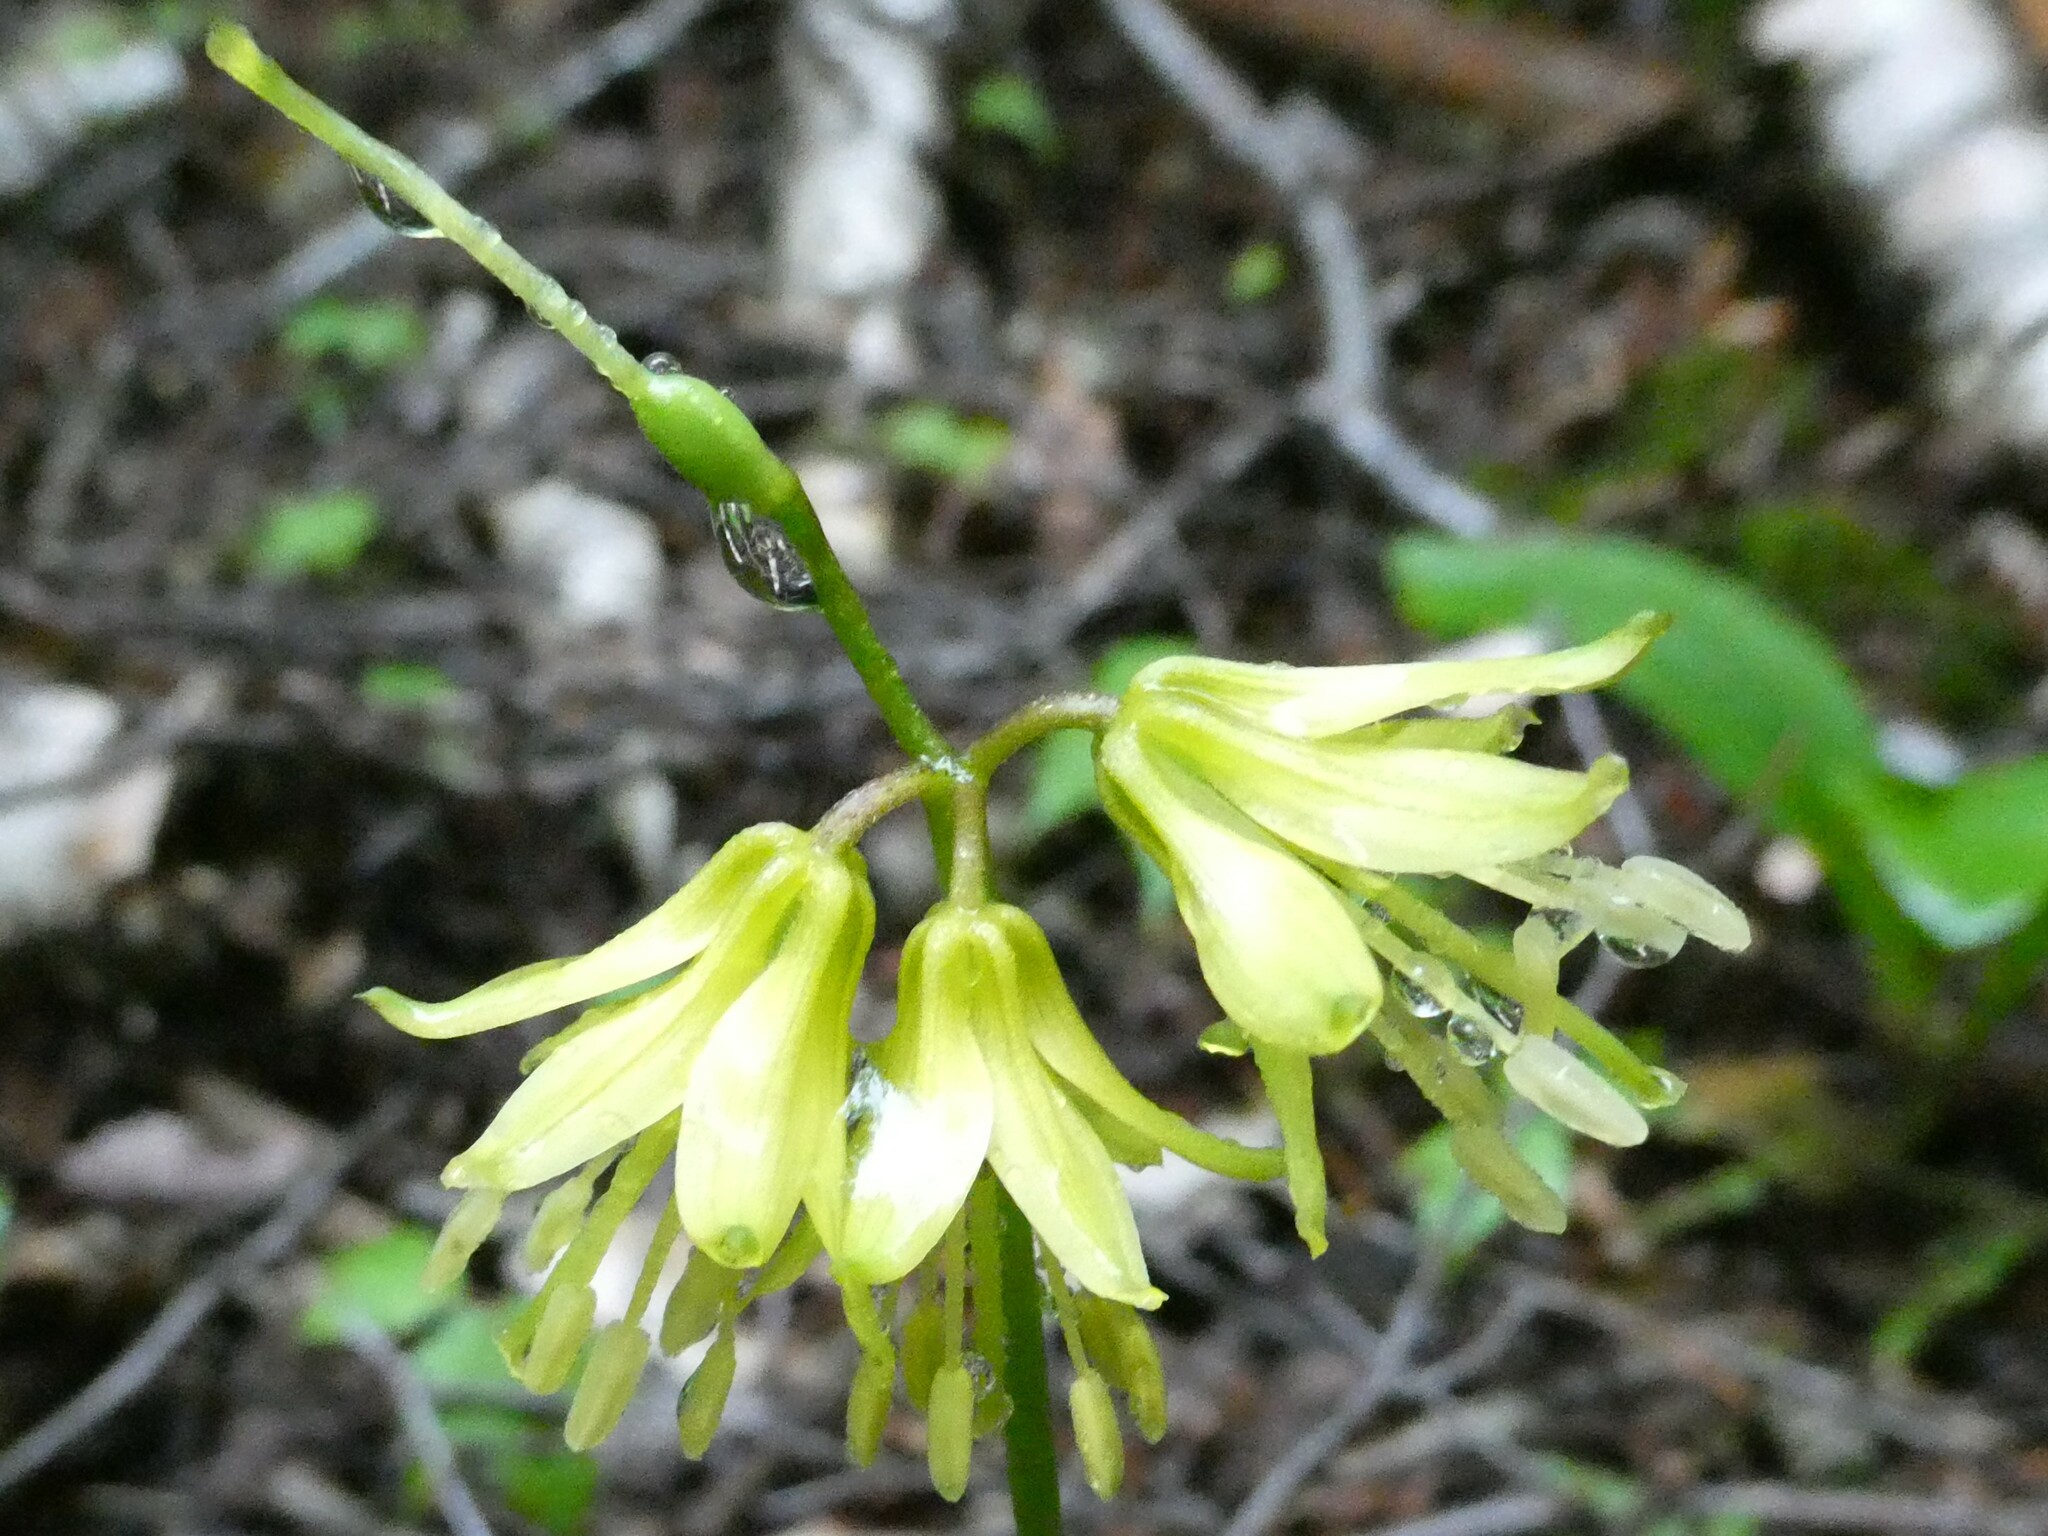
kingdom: Plantae
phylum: Tracheophyta
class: Liliopsida
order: Liliales
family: Liliaceae
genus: Clintonia
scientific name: Clintonia borealis
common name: Yellow clintonia
